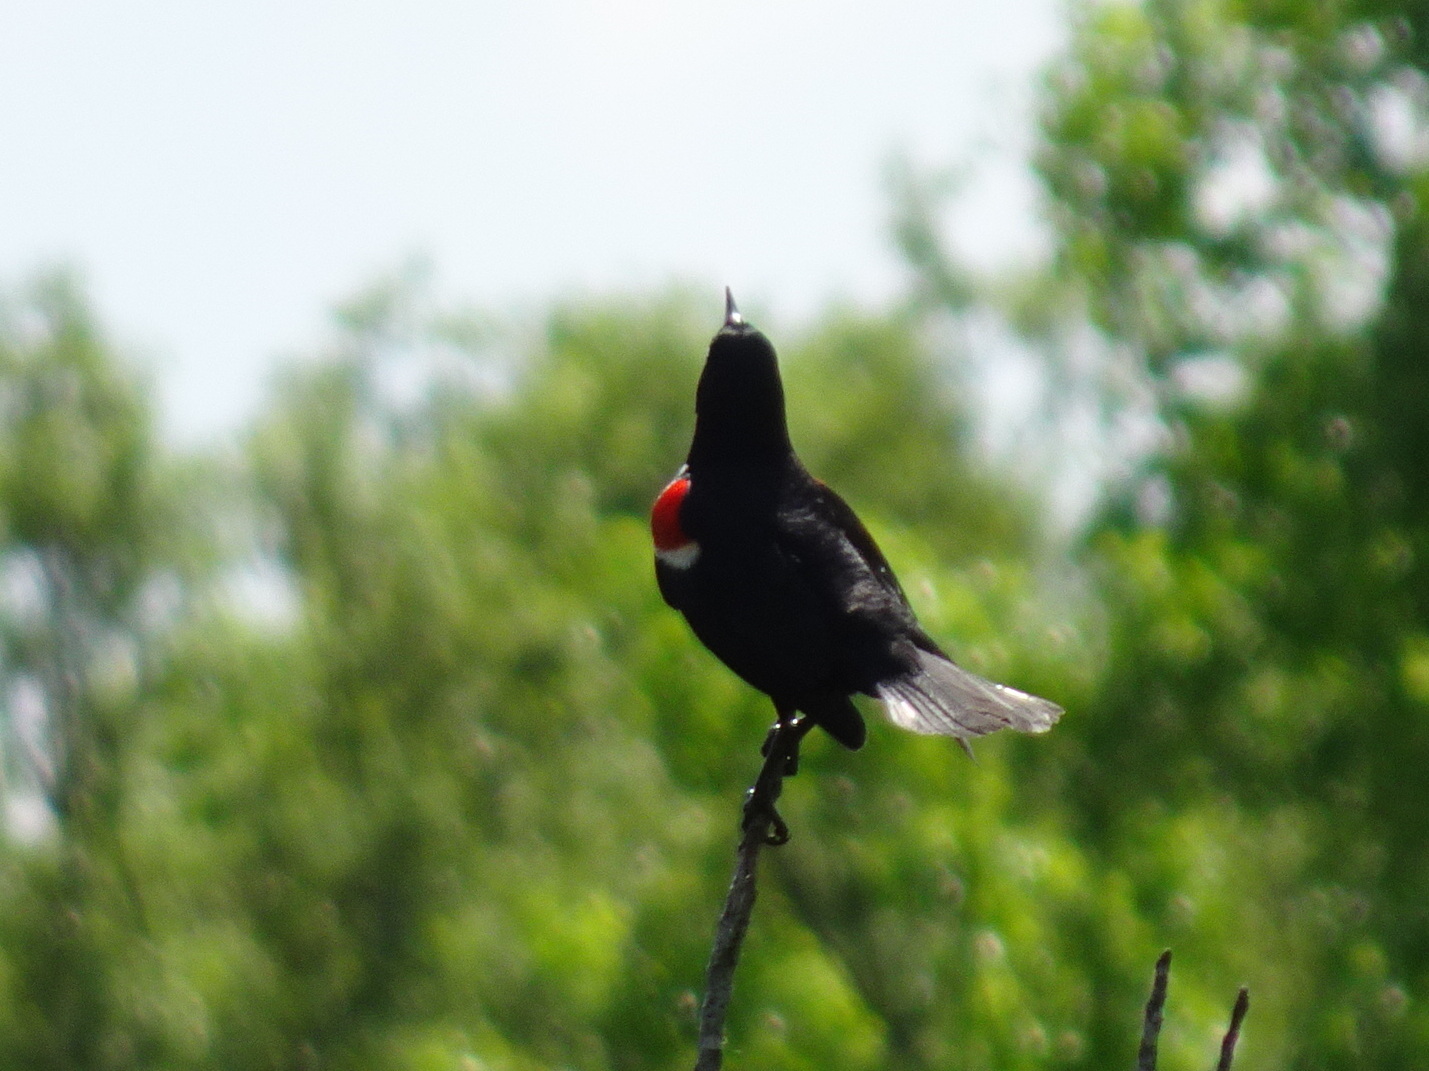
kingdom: Animalia
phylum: Chordata
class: Aves
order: Passeriformes
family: Icteridae
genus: Agelaius
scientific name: Agelaius phoeniceus
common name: Red-winged blackbird
